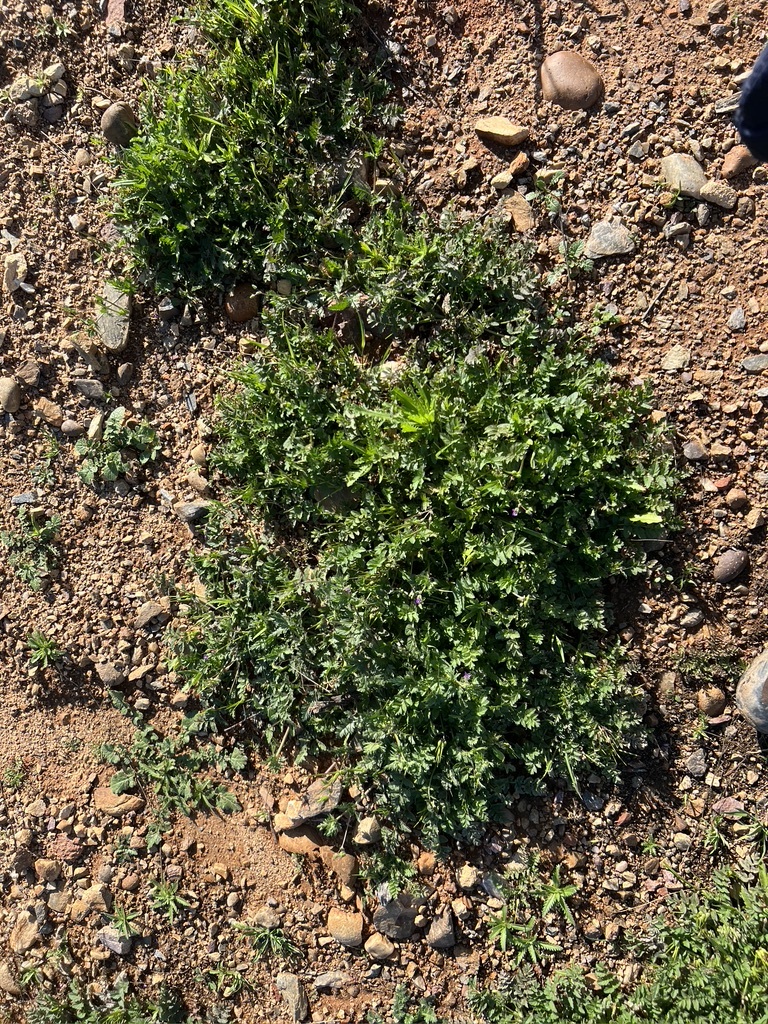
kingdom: Plantae
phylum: Tracheophyta
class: Magnoliopsida
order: Geraniales
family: Geraniaceae
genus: Erodium
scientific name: Erodium moschatum
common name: Musk stork's-bill
